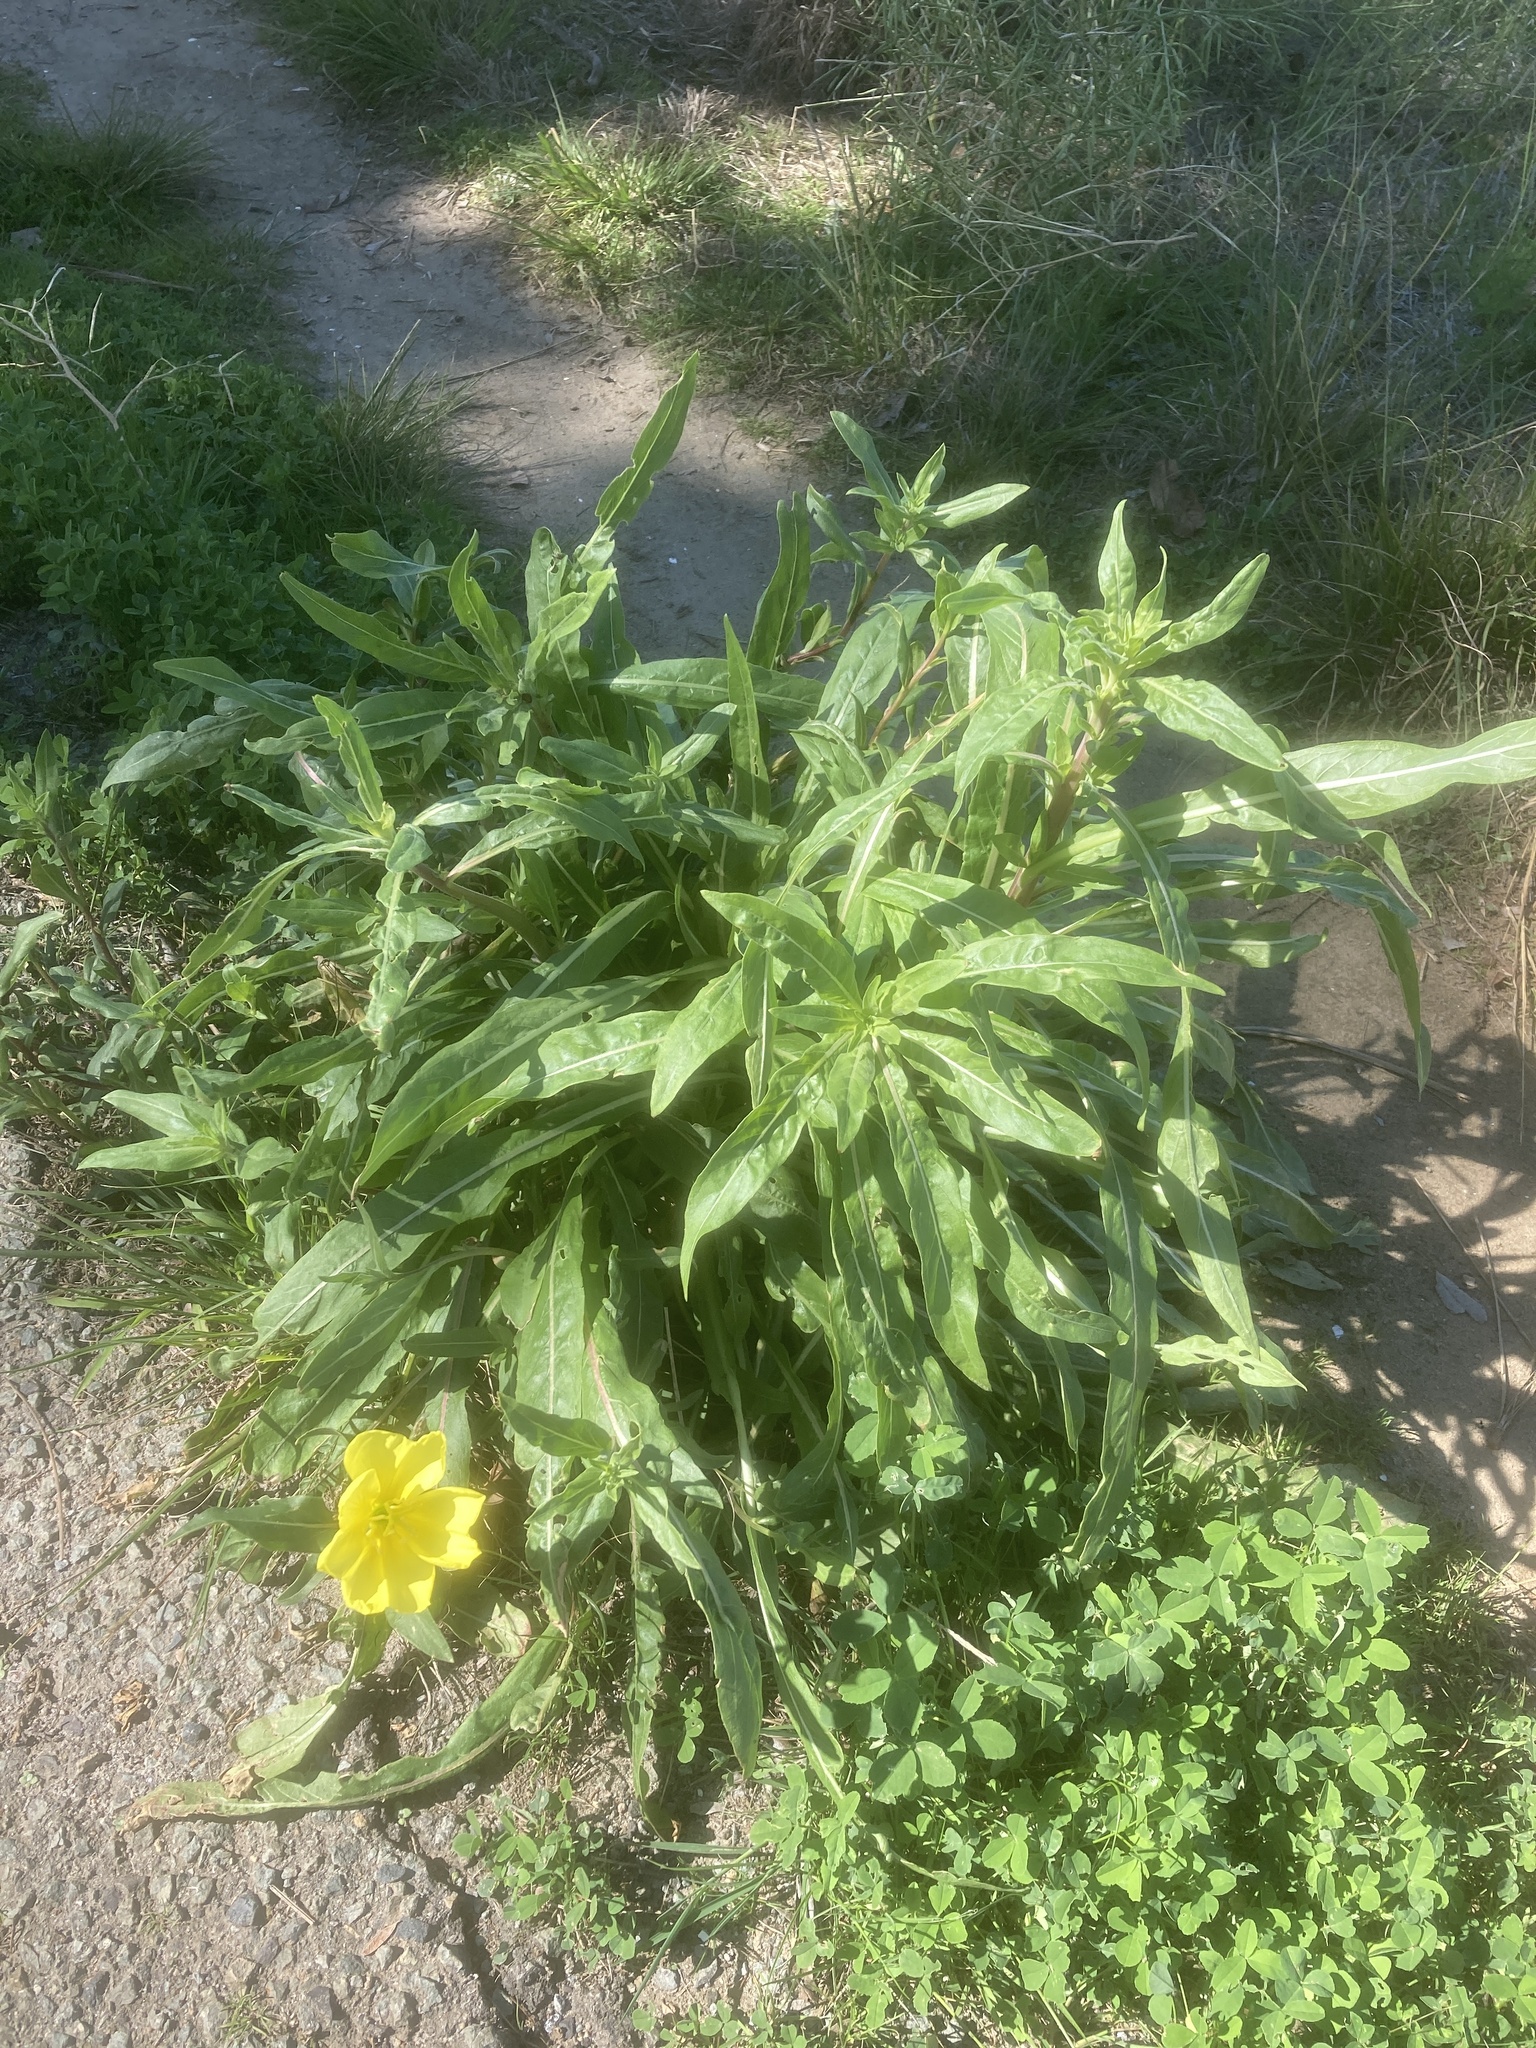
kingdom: Plantae
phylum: Tracheophyta
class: Magnoliopsida
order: Myrtales
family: Onagraceae
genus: Oenothera
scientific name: Oenothera elata
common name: Hooker's evening-primrose
